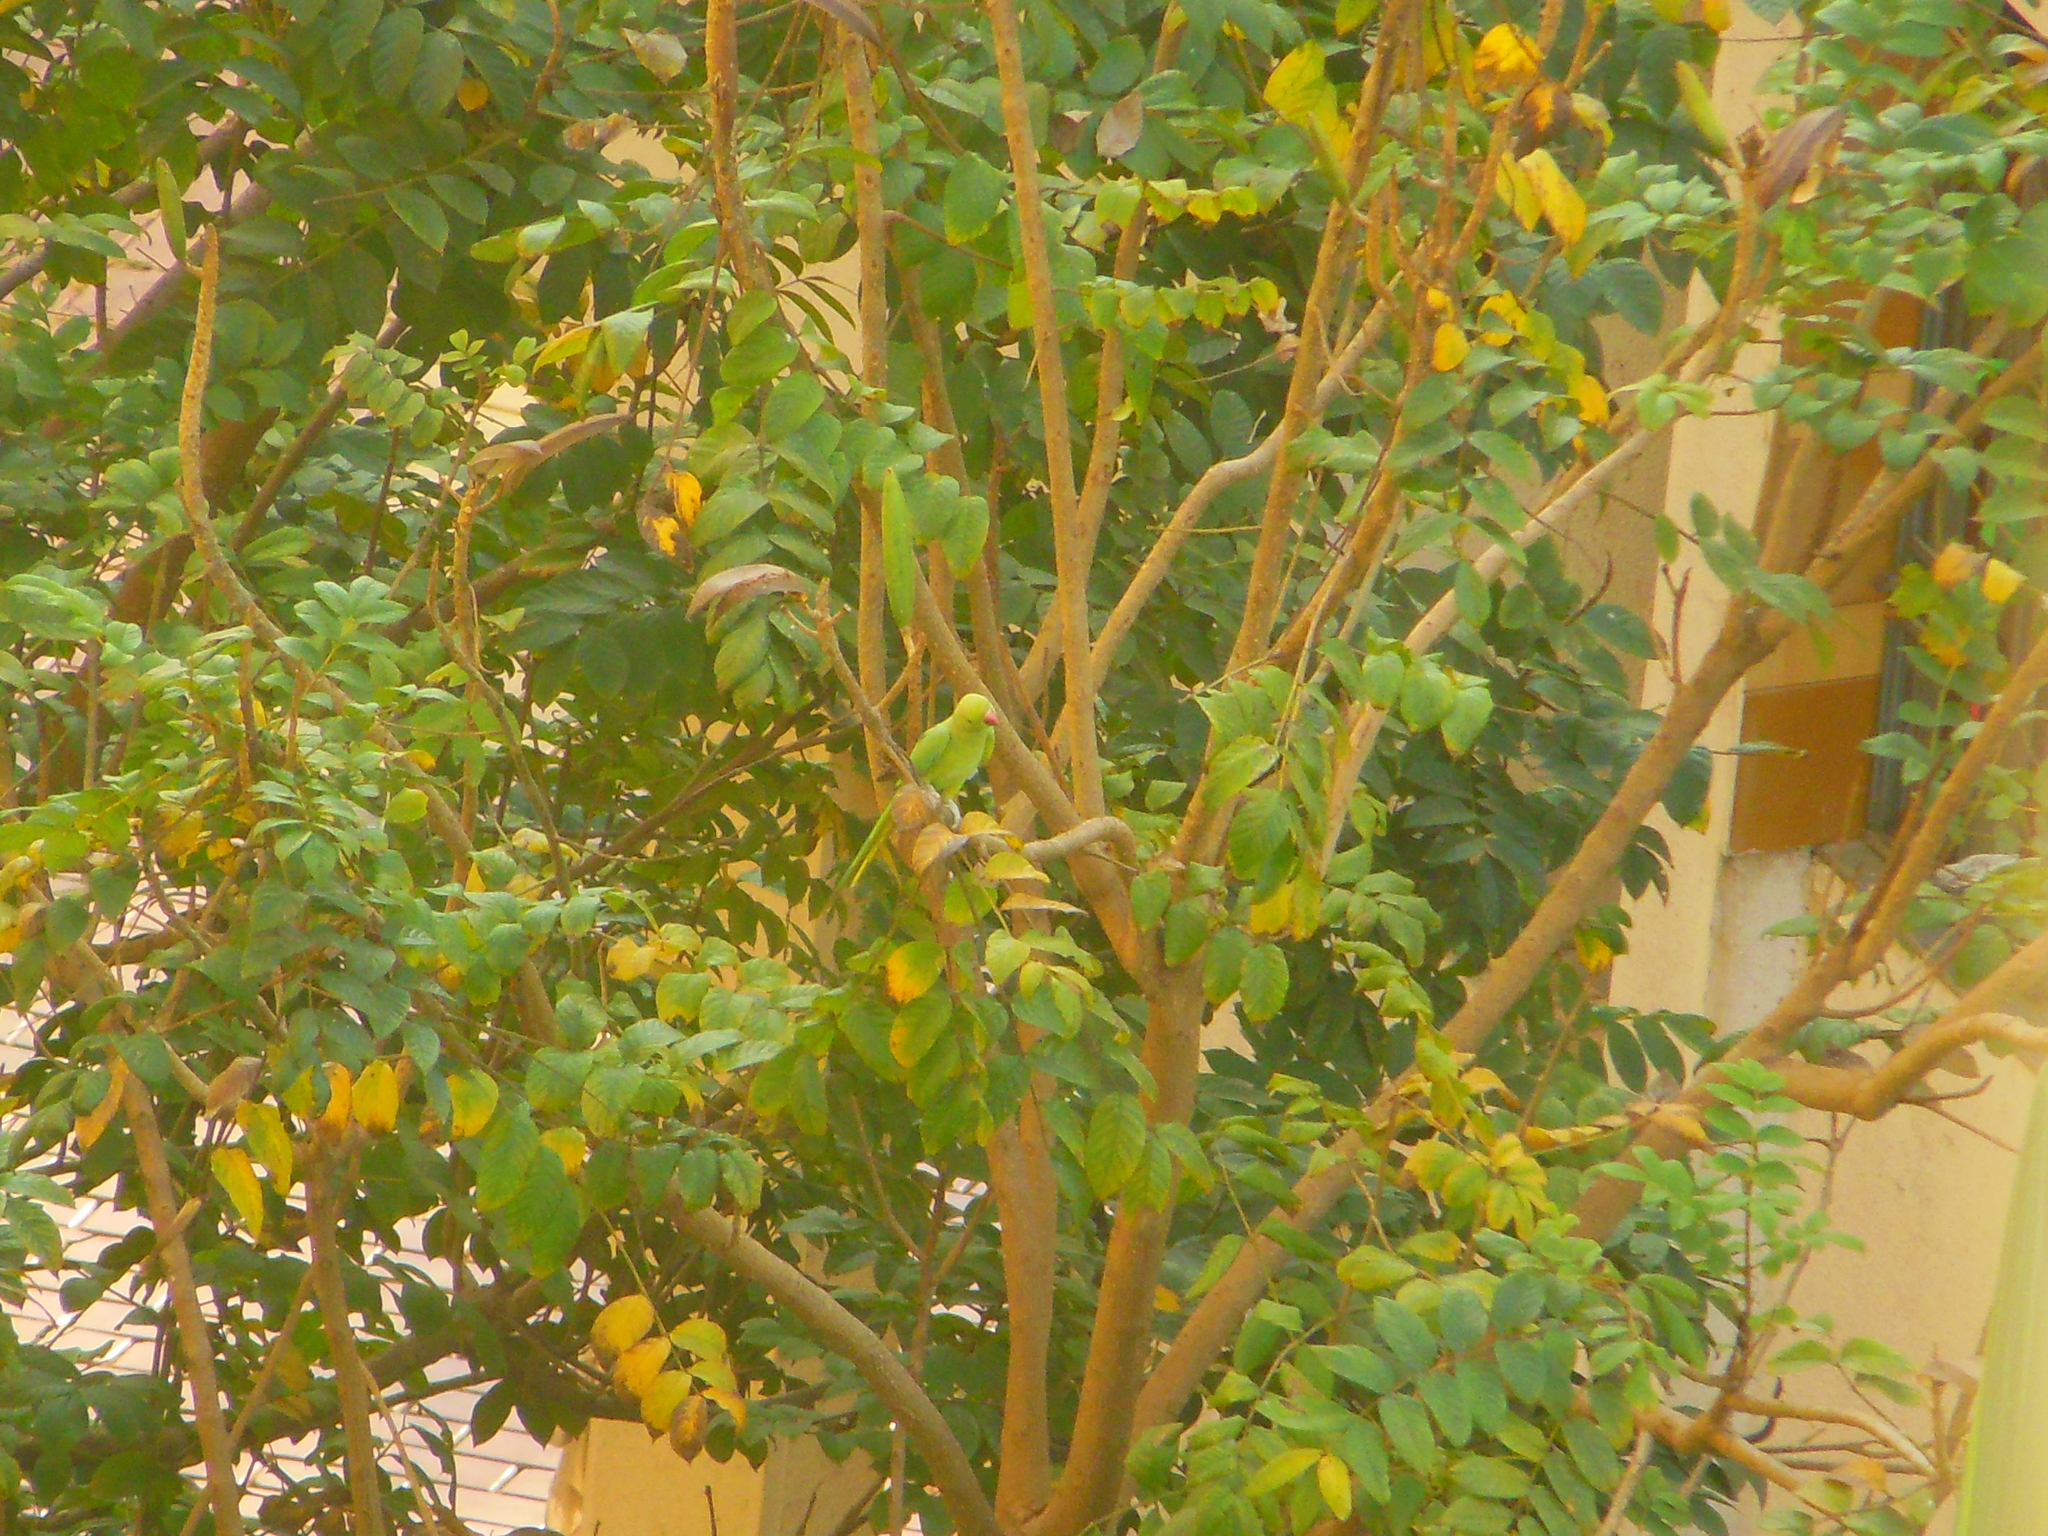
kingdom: Animalia
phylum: Chordata
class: Aves
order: Psittaciformes
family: Psittacidae
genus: Psittacula
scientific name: Psittacula krameri
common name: Rose-ringed parakeet
